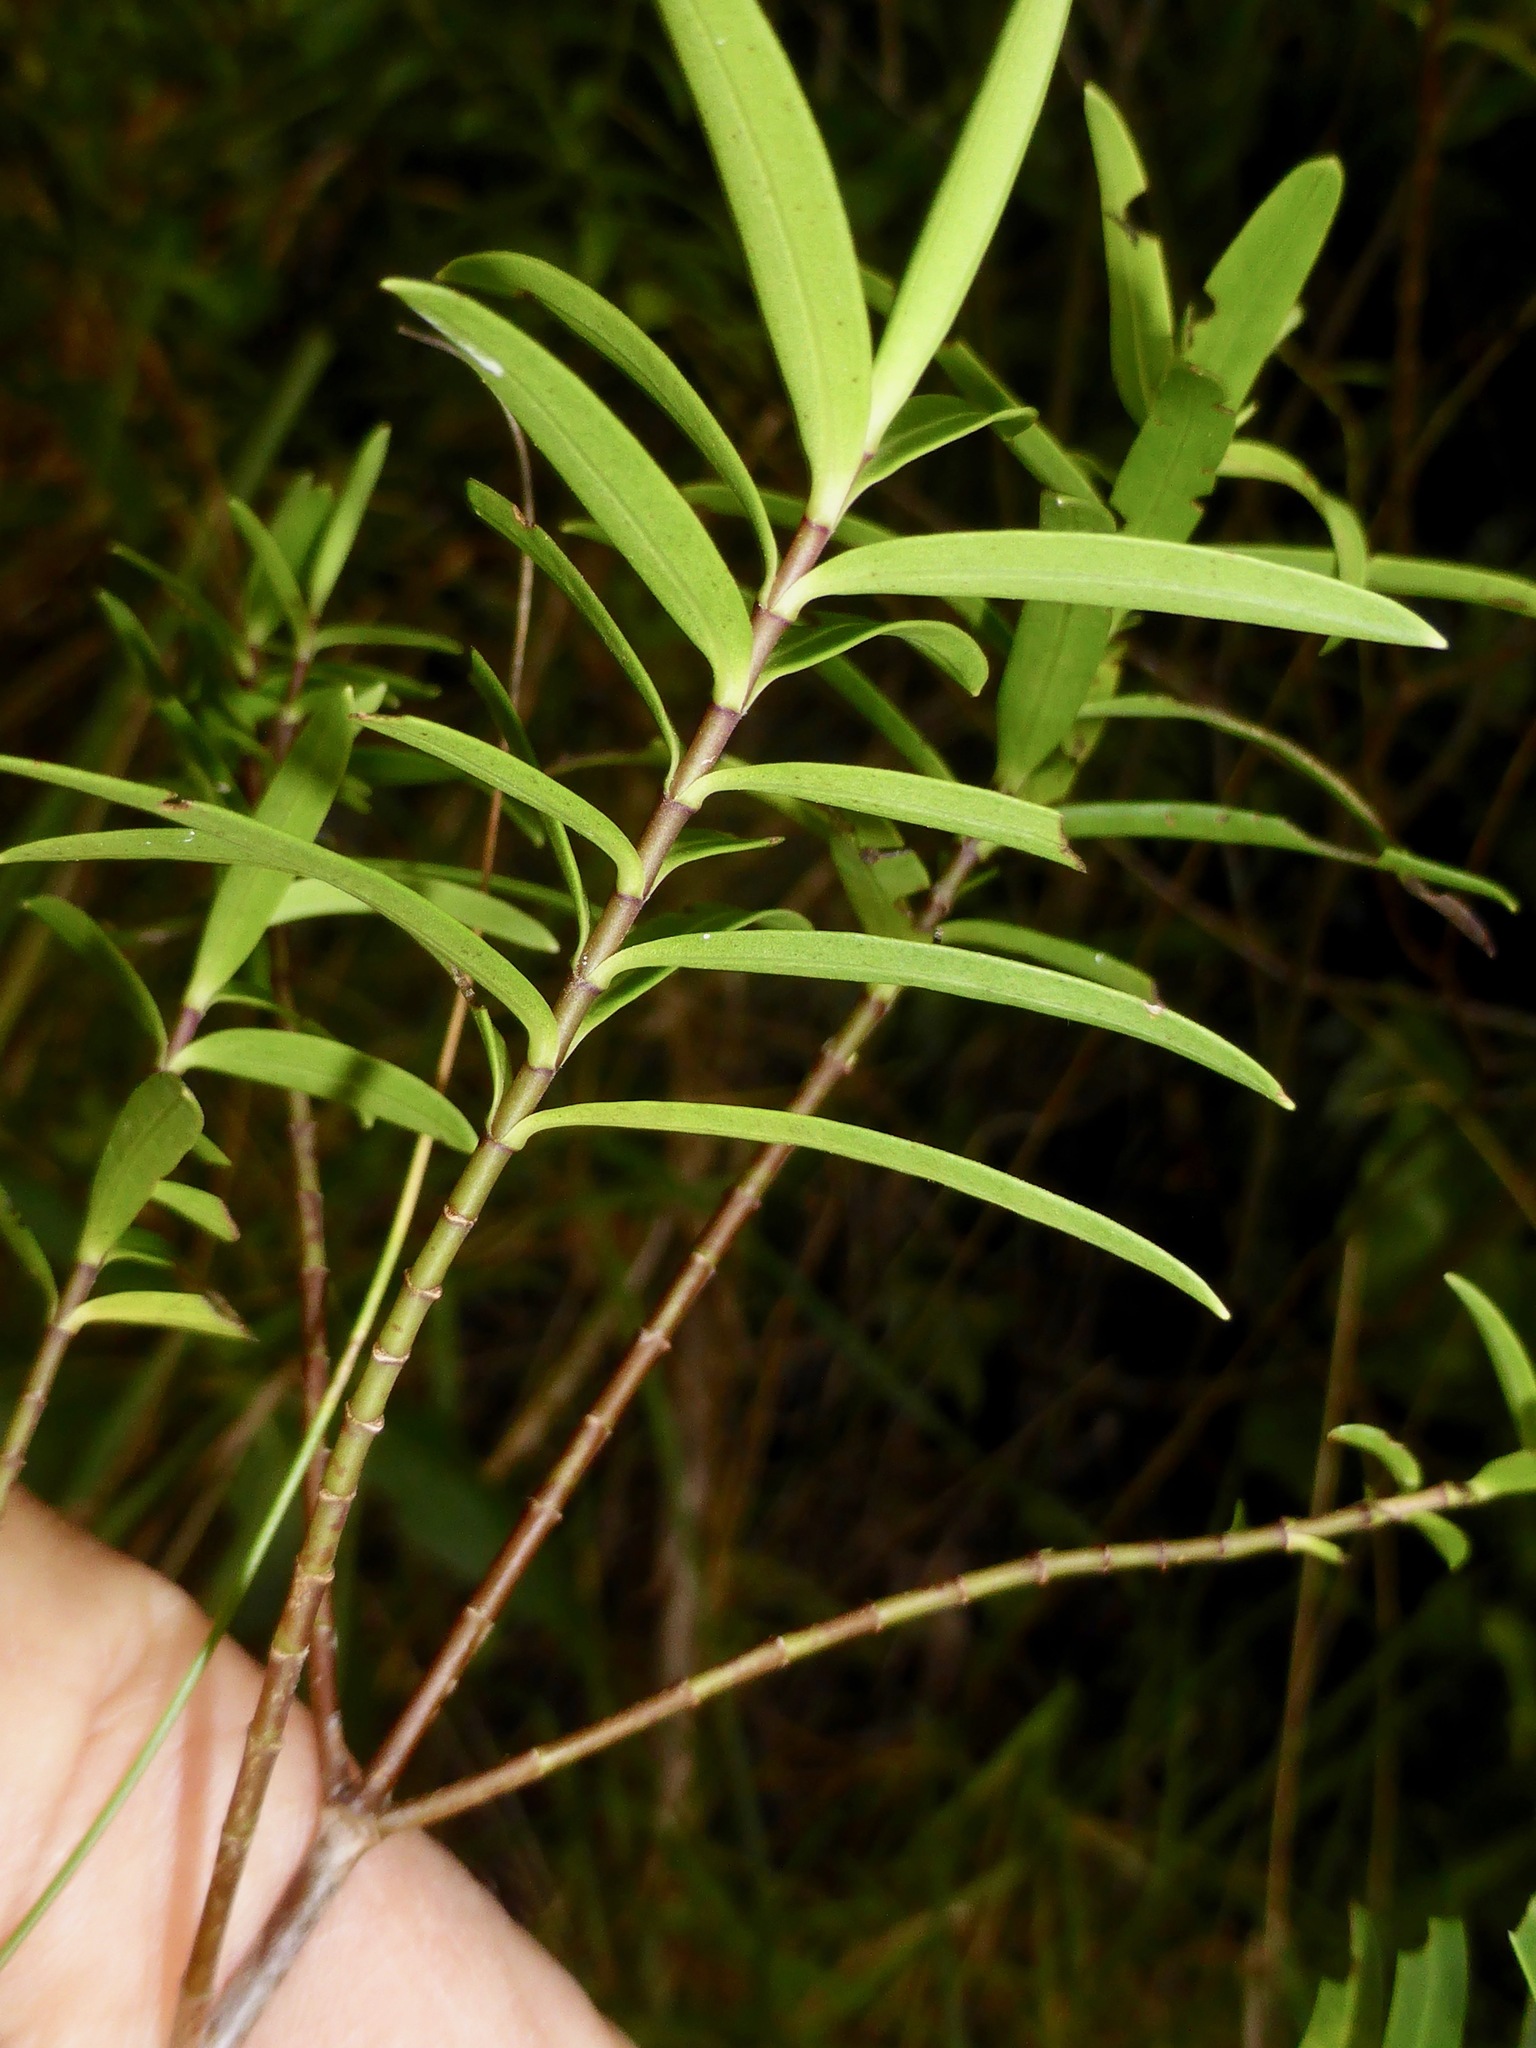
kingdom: Plantae
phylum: Tracheophyta
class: Magnoliopsida
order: Lamiales
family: Plantaginaceae
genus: Veronica
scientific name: Veronica strictissima
